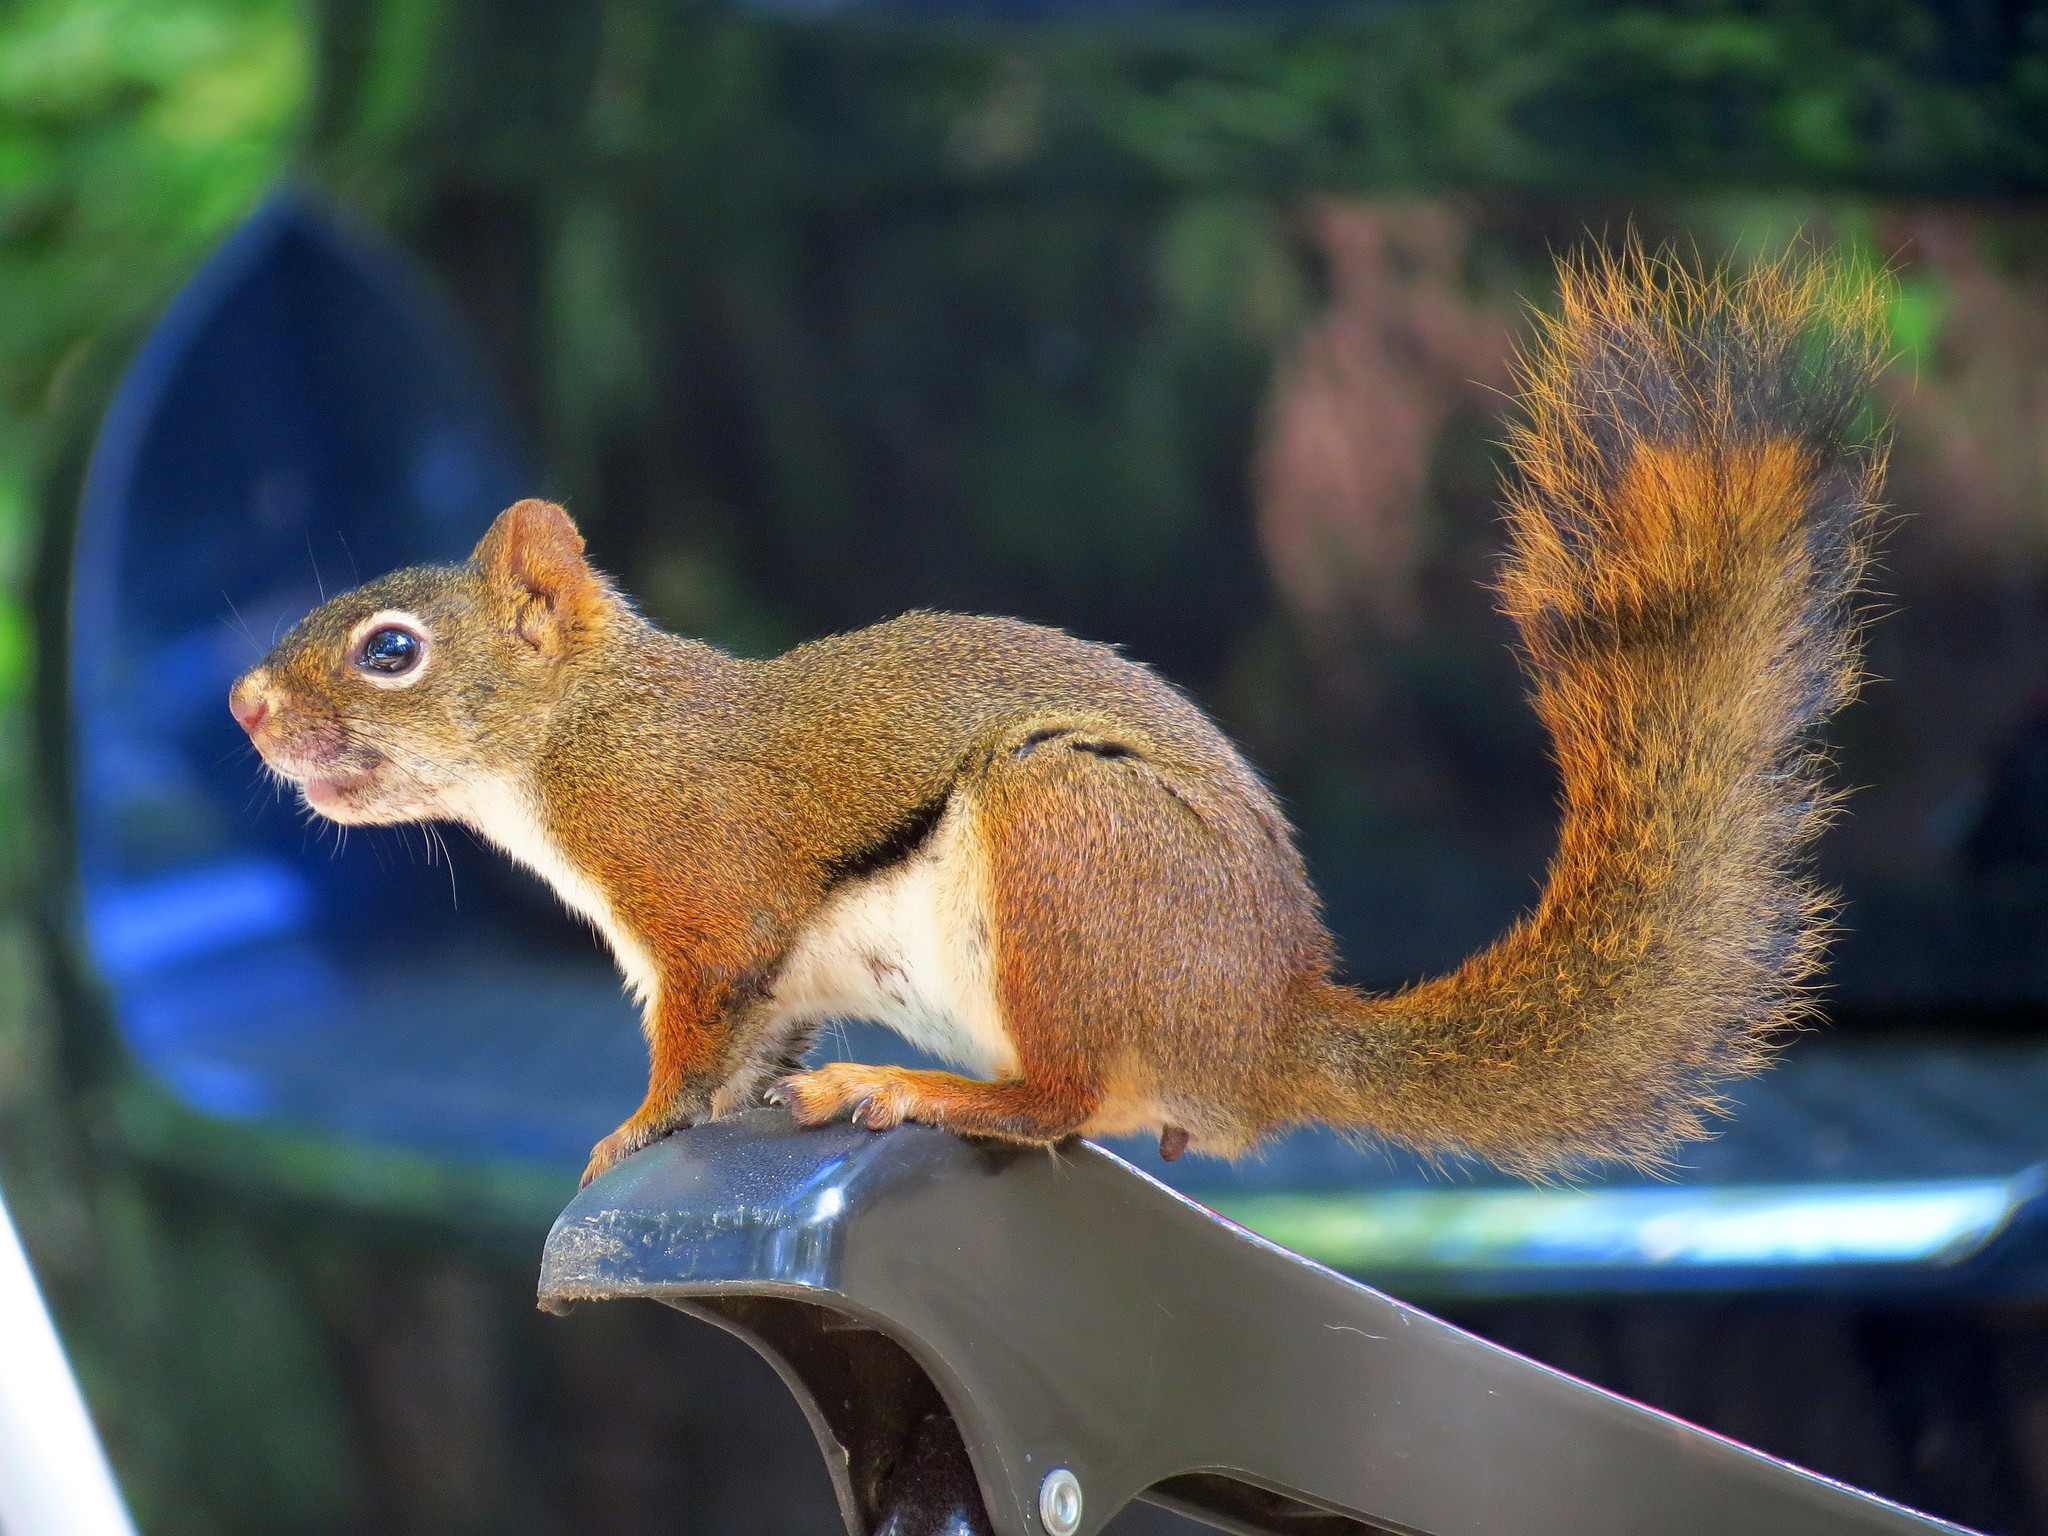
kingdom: Animalia
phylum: Chordata
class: Mammalia
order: Rodentia
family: Sciuridae
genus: Tamiasciurus
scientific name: Tamiasciurus hudsonicus
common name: Red squirrel
